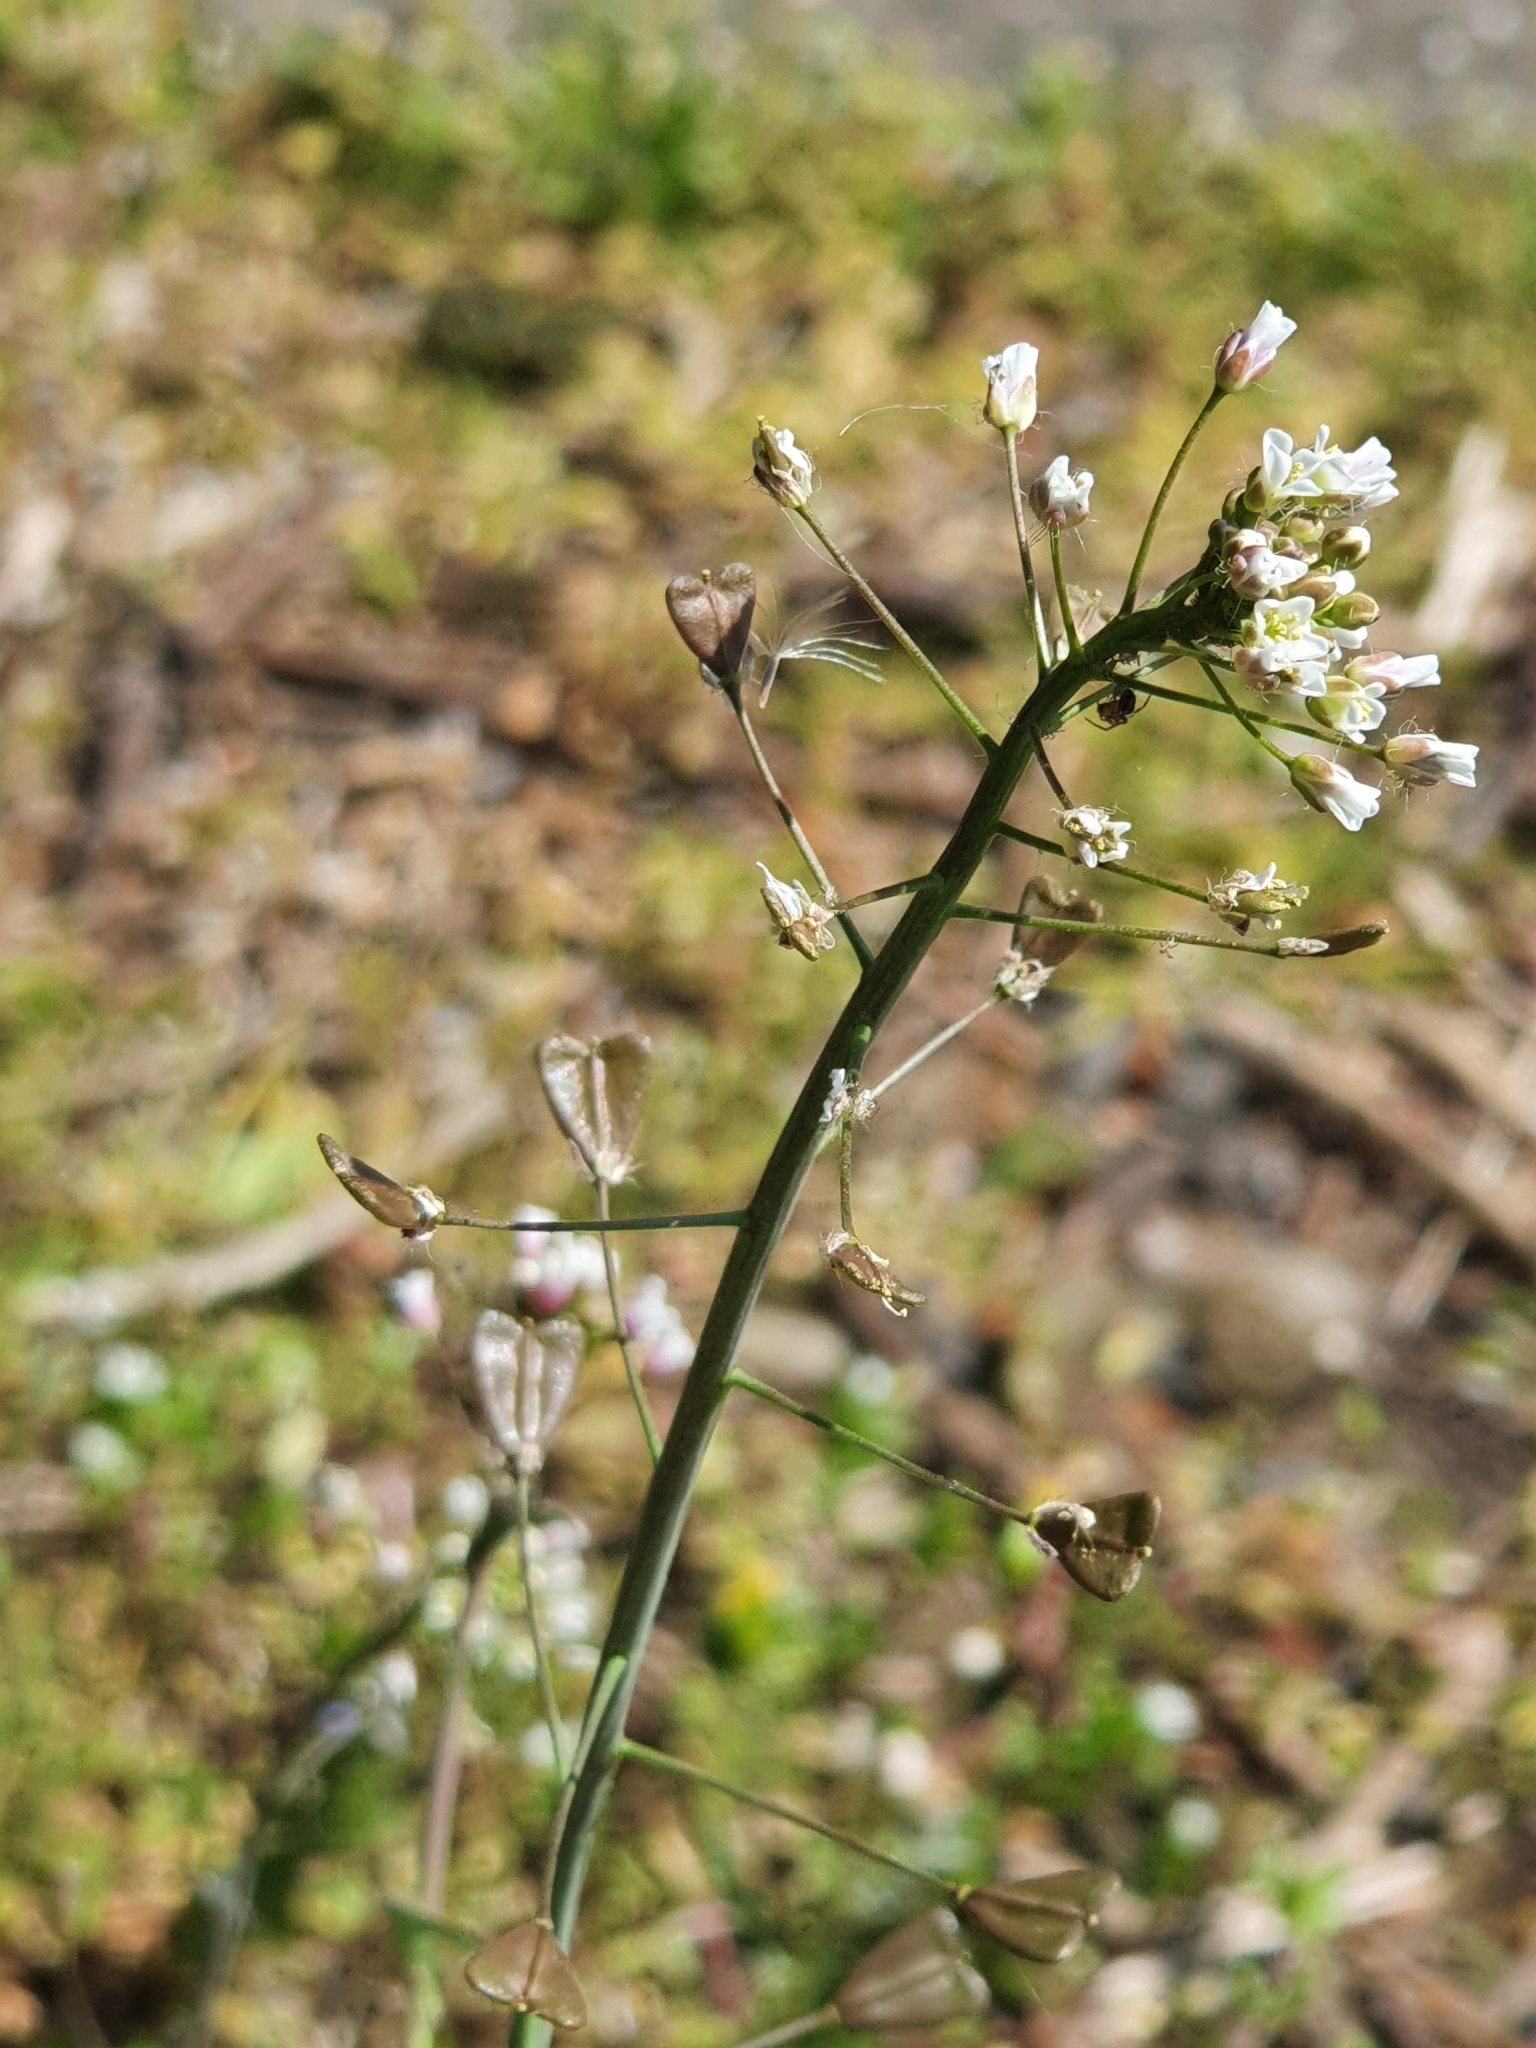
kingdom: Plantae
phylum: Tracheophyta
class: Magnoliopsida
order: Brassicales
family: Brassicaceae
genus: Capsella
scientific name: Capsella bursa-pastoris
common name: Shepherd's purse
